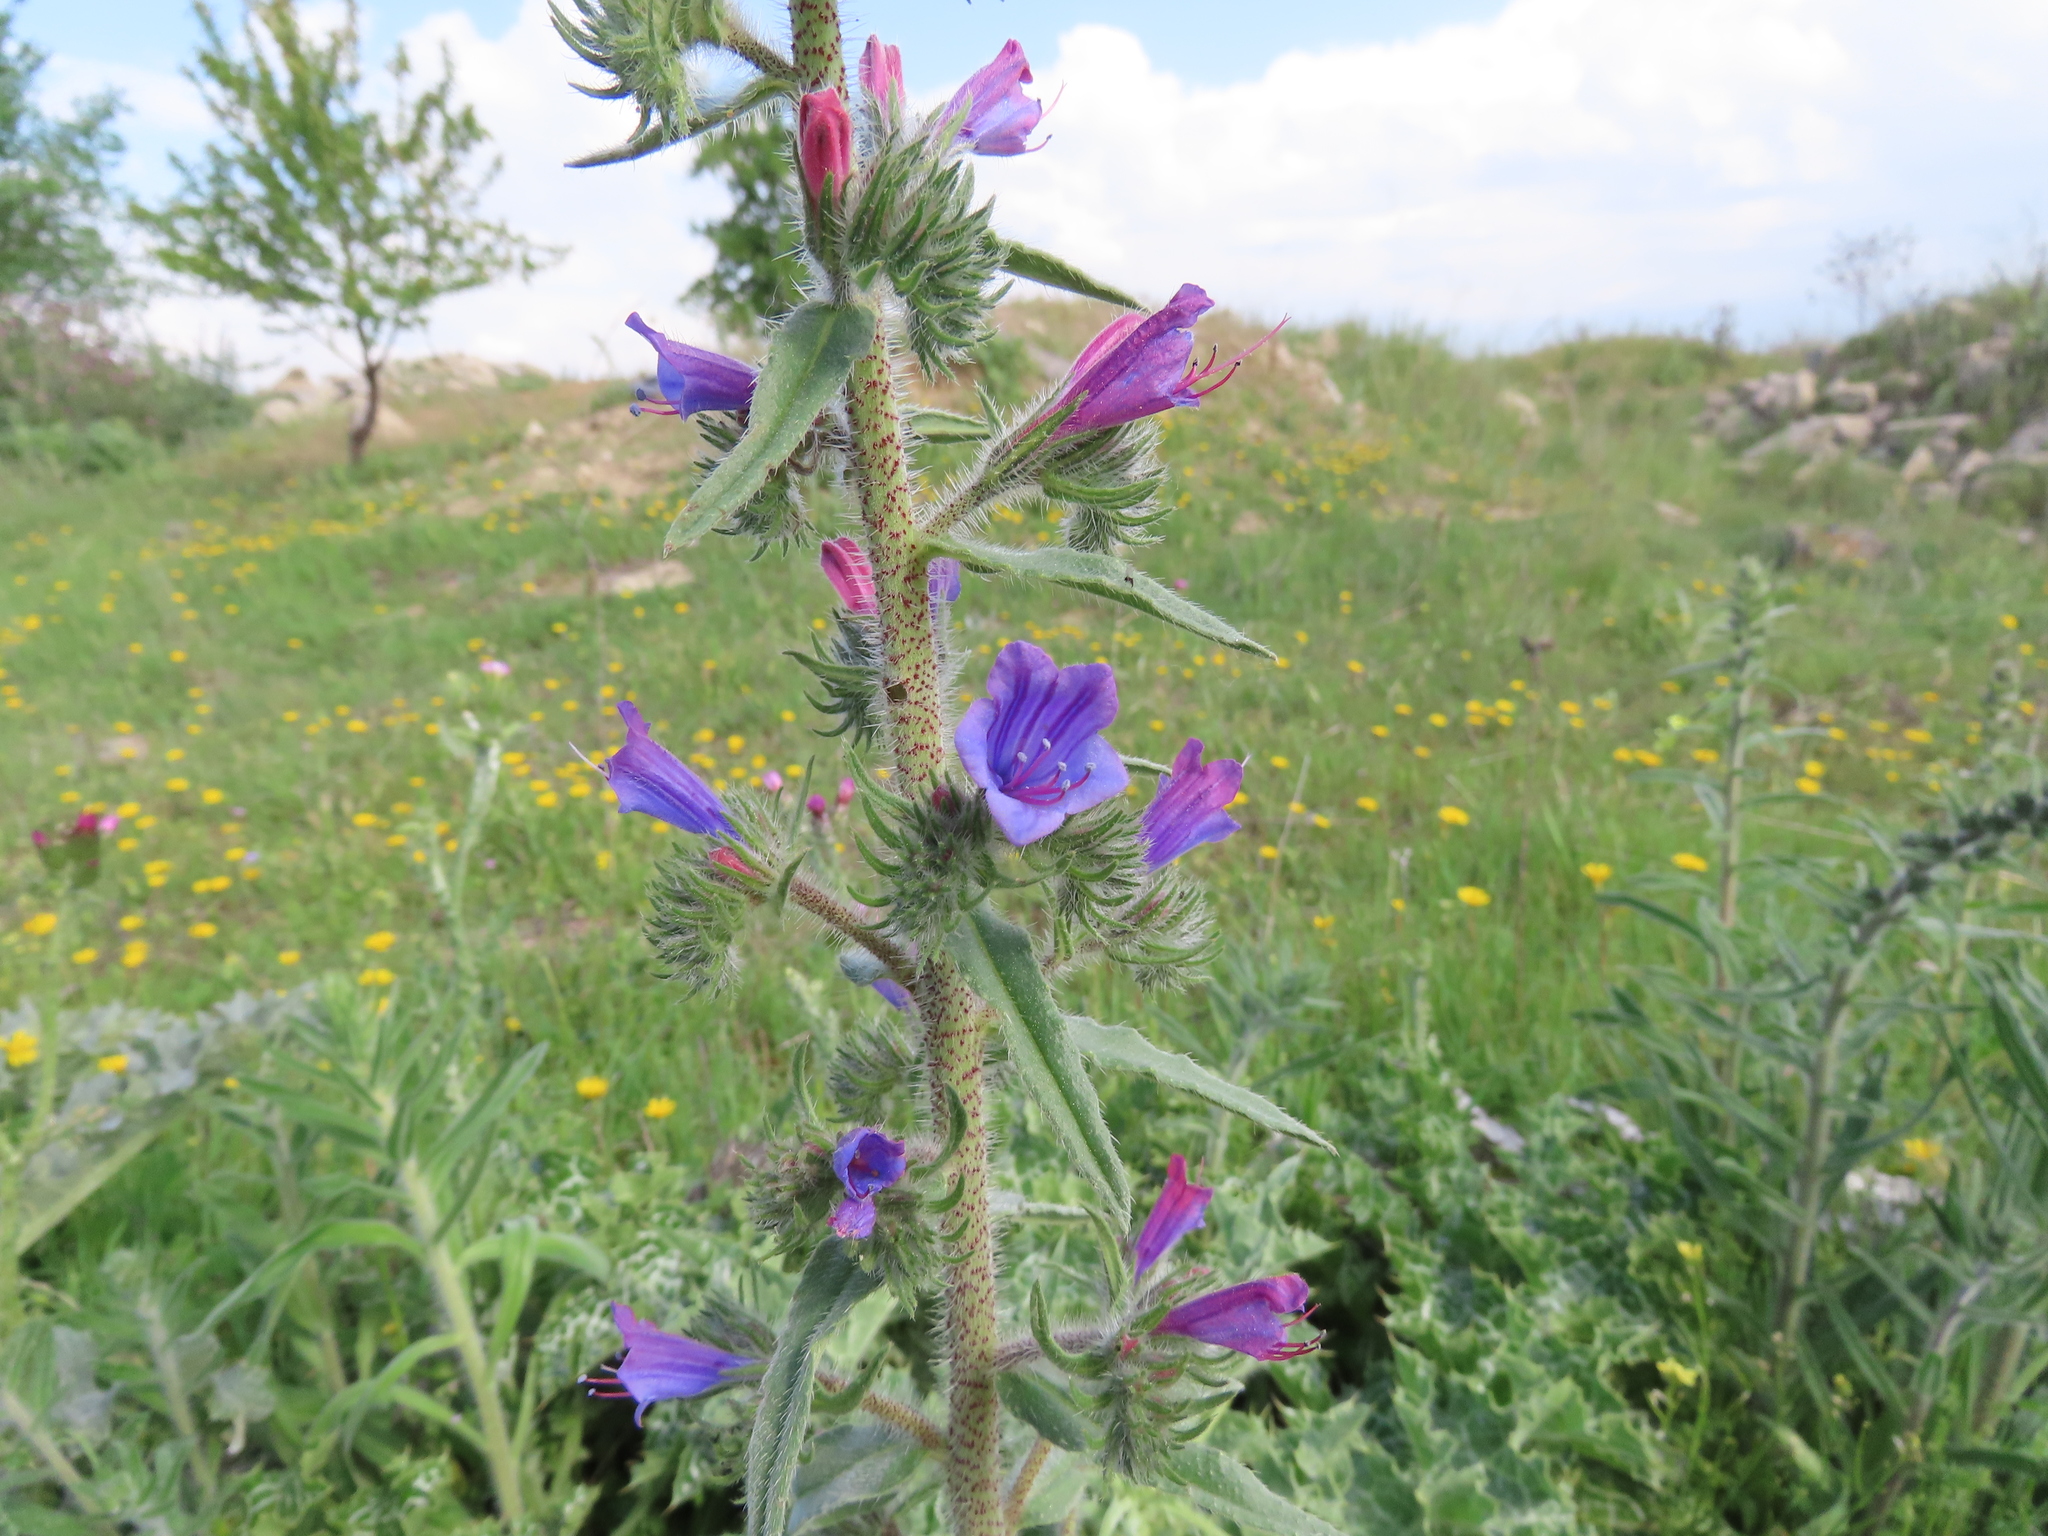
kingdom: Plantae
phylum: Tracheophyta
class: Magnoliopsida
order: Boraginales
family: Boraginaceae
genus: Echium
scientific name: Echium vulgare
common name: Common viper's bugloss
